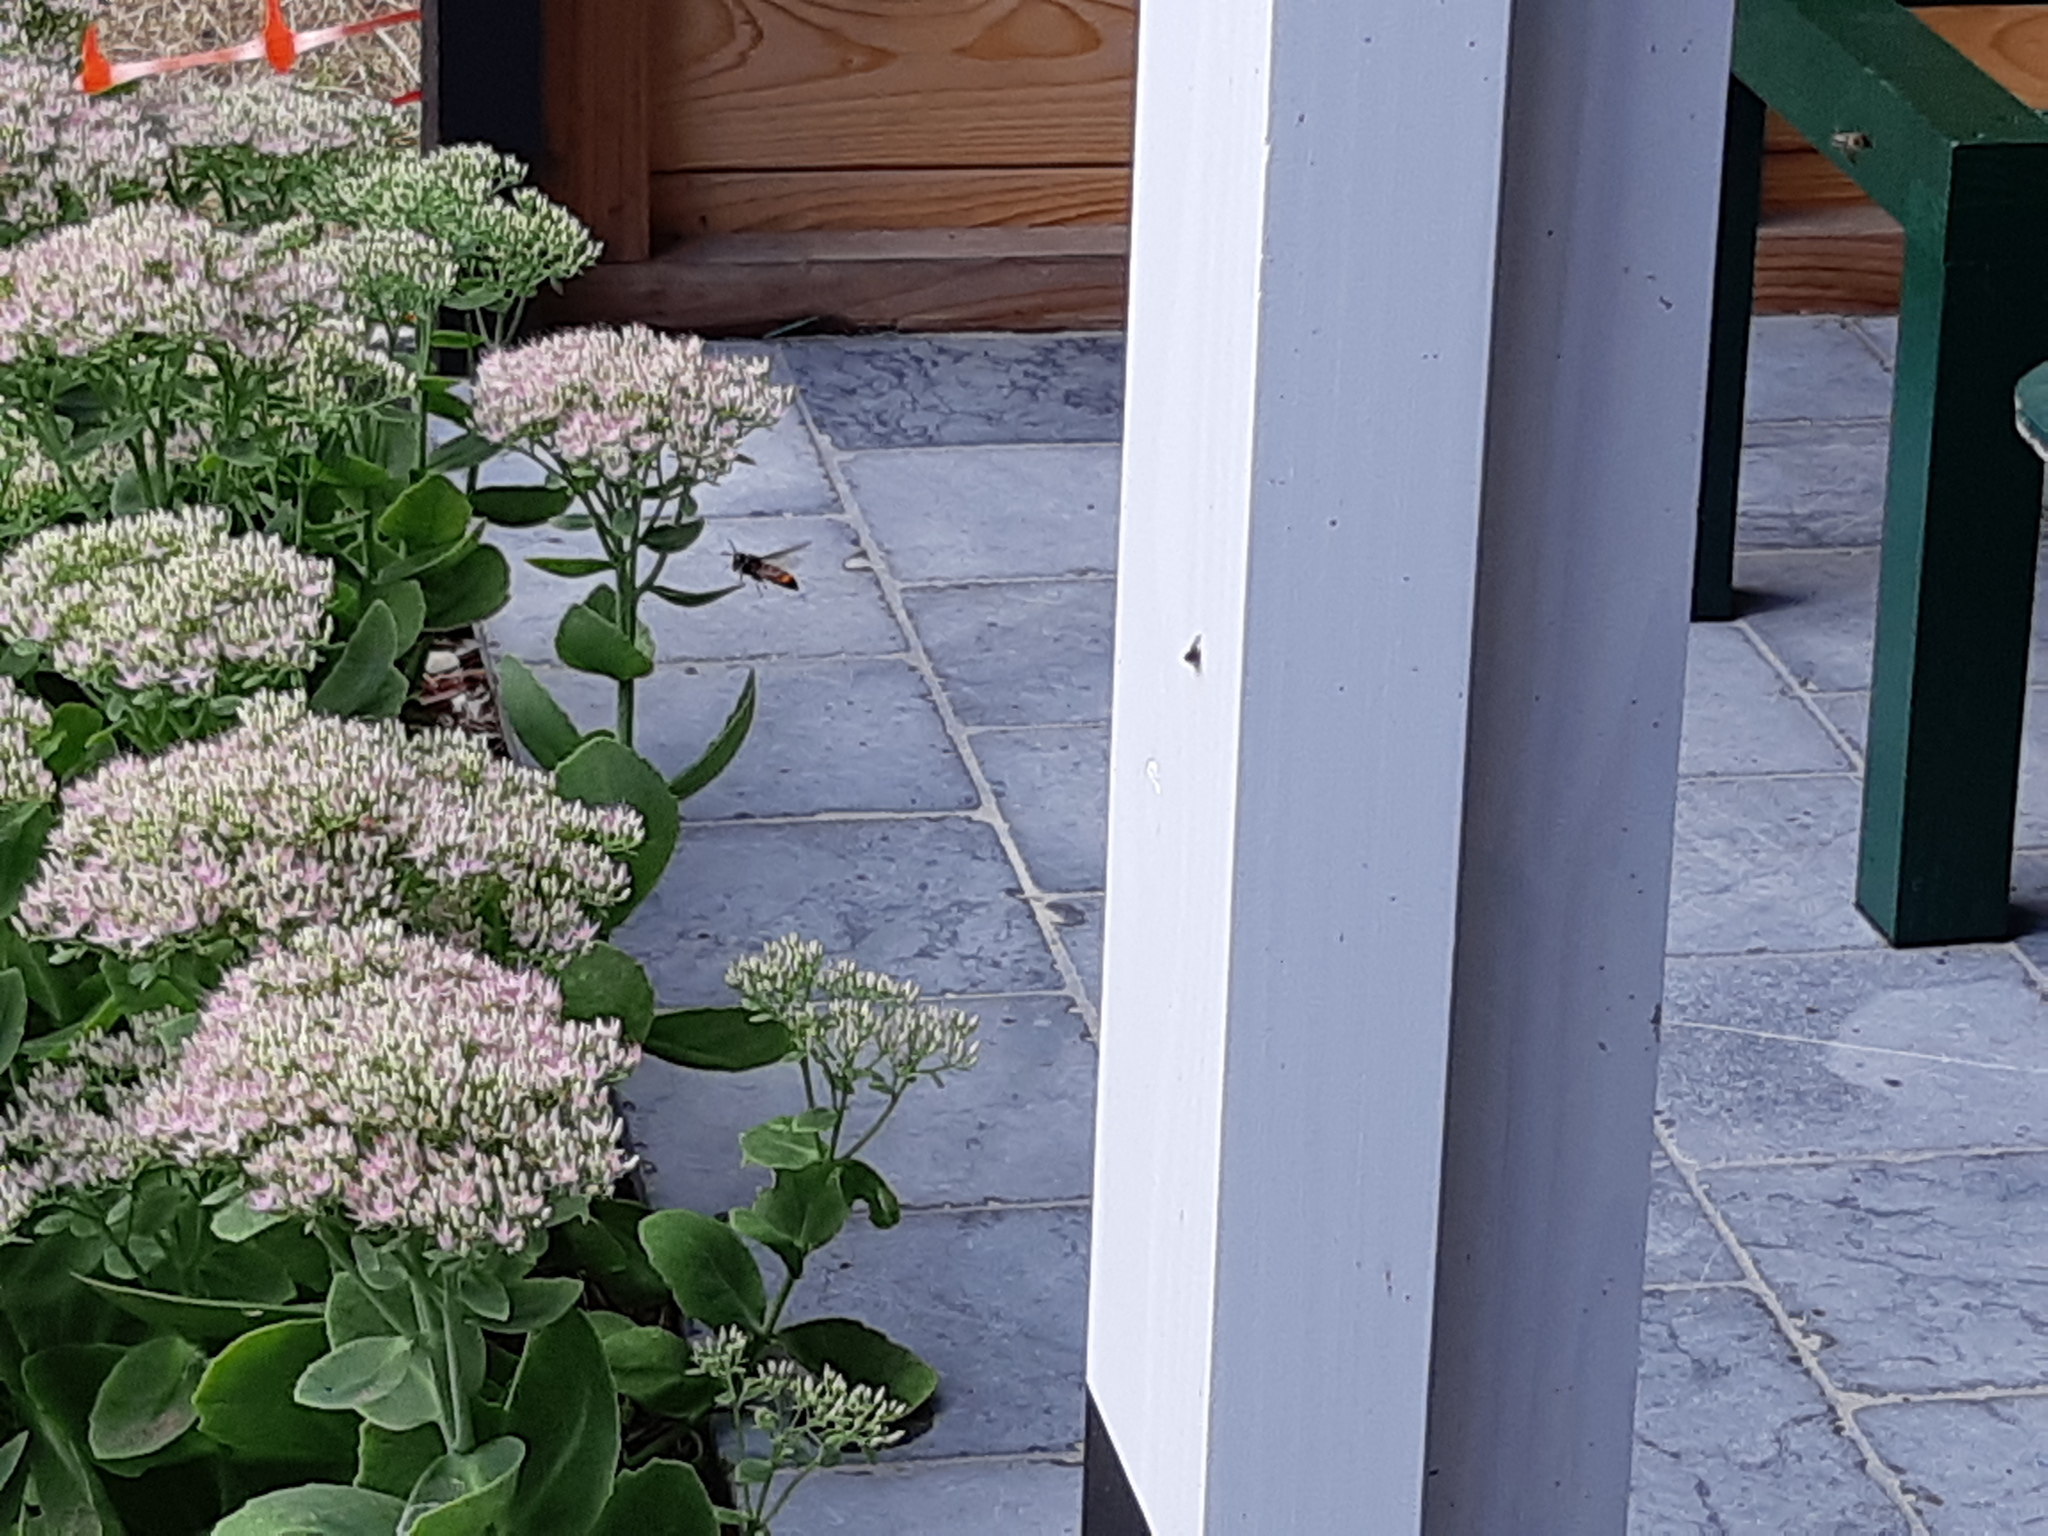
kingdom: Animalia
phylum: Arthropoda
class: Insecta
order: Hymenoptera
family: Vespidae
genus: Vespa
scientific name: Vespa velutina
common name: Asian hornet
